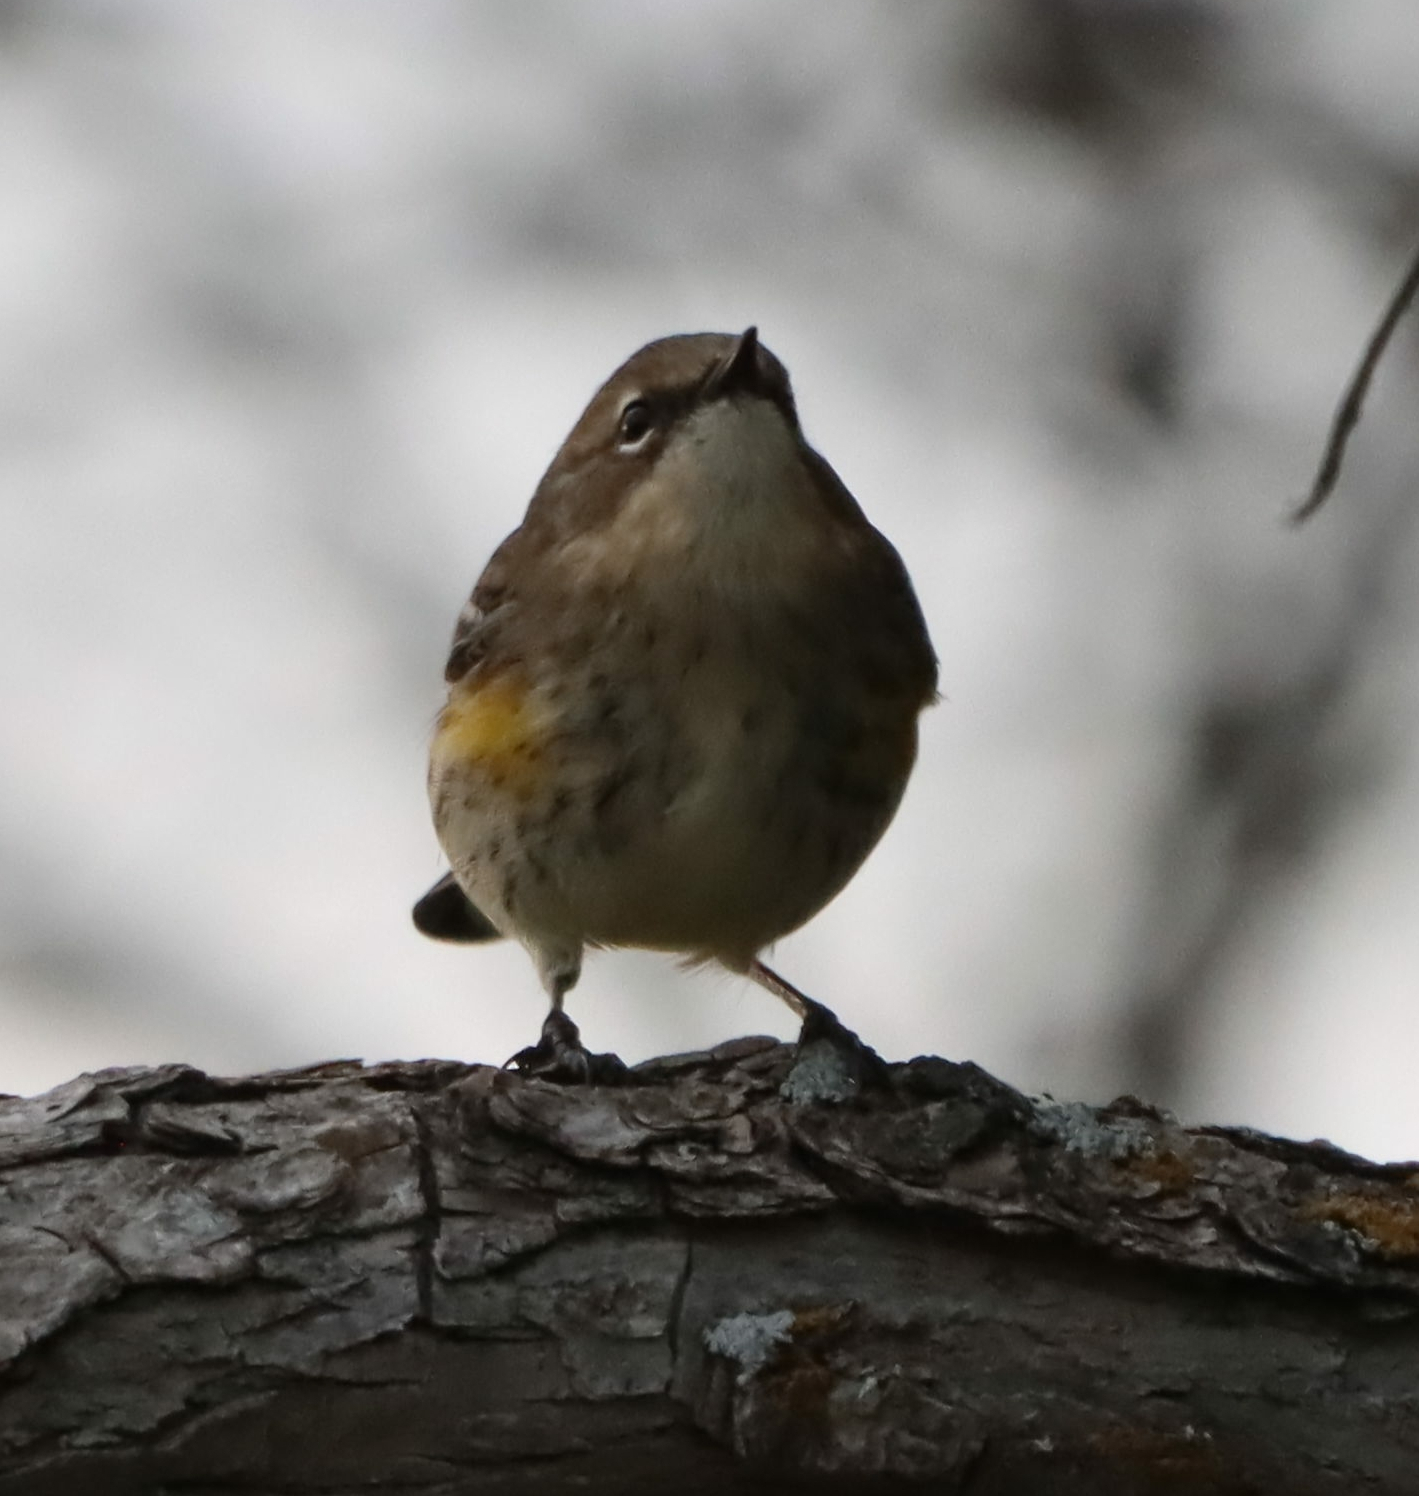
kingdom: Animalia
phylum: Chordata
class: Aves
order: Passeriformes
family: Parulidae
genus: Setophaga
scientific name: Setophaga coronata
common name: Myrtle warbler
